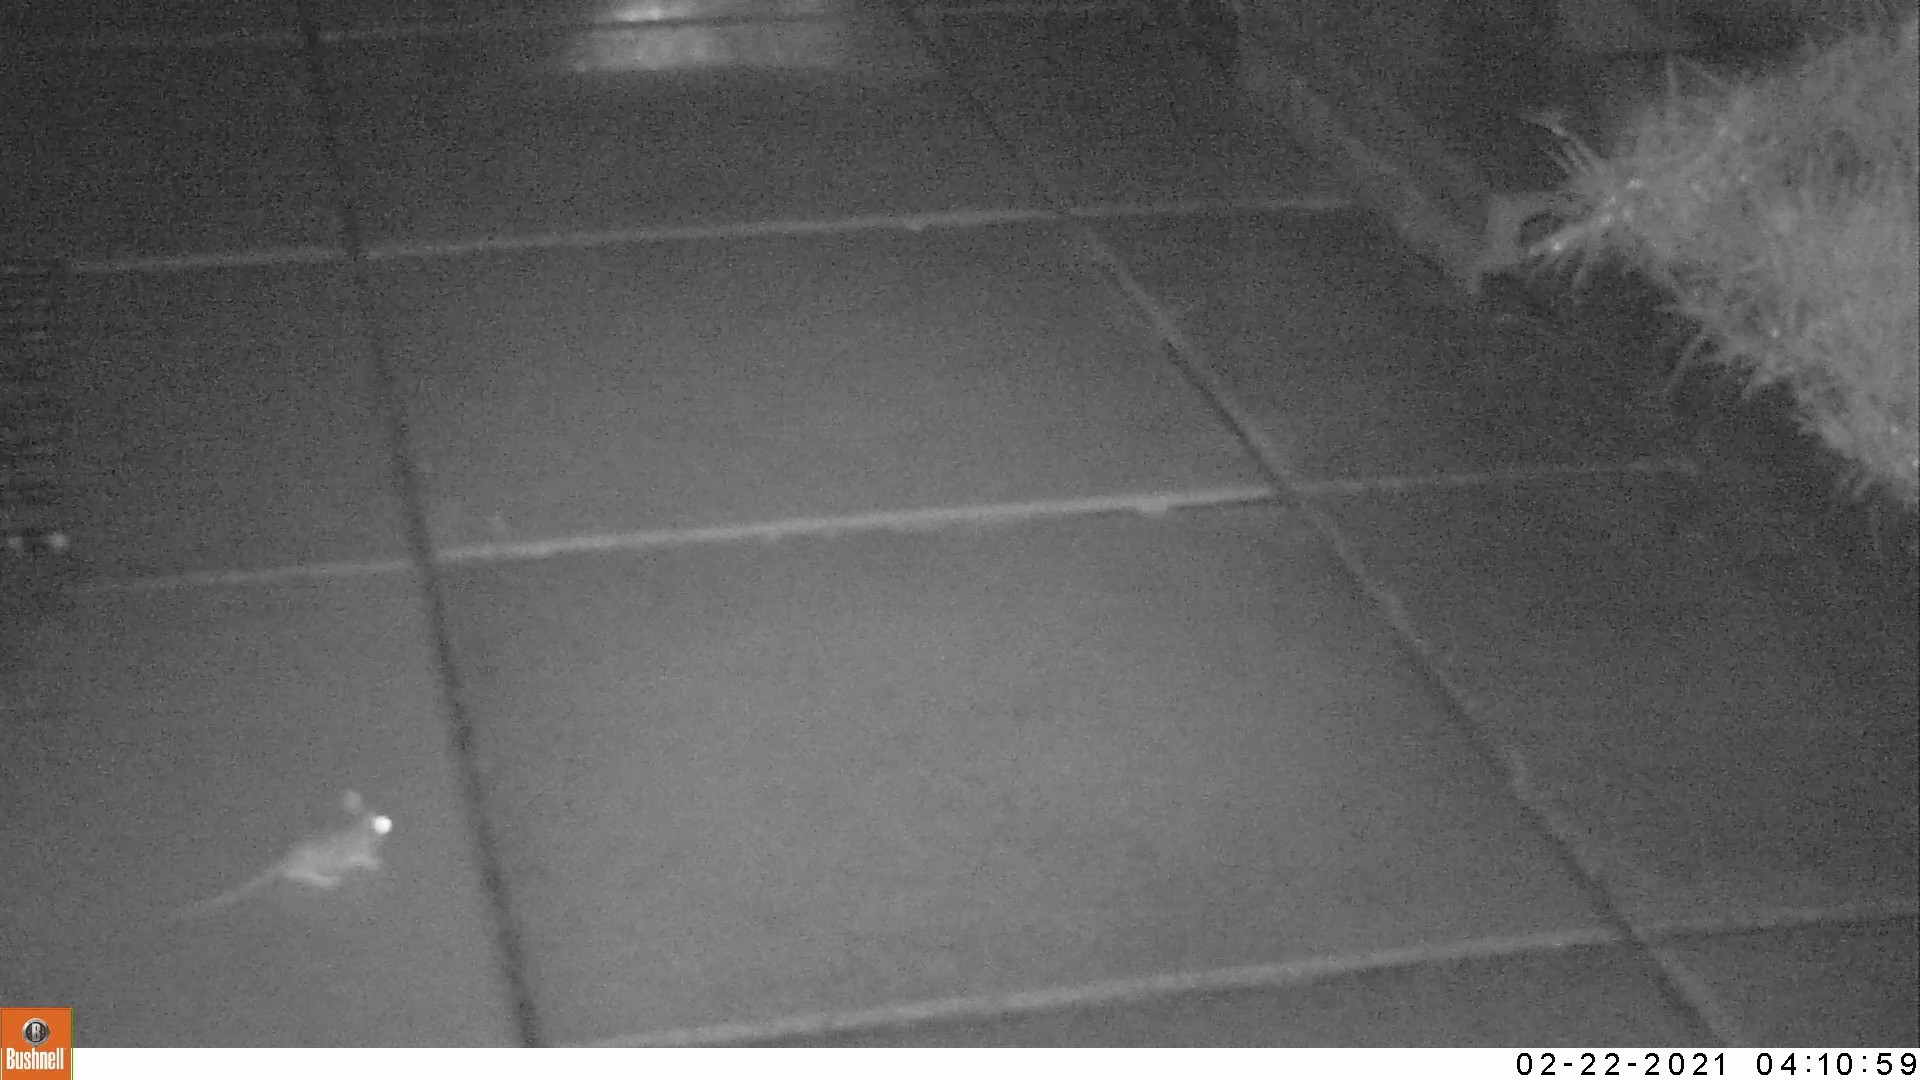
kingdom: Animalia
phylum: Chordata
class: Mammalia
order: Rodentia
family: Muridae
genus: Apodemus
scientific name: Apodemus sylvaticus
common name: Wood mouse
